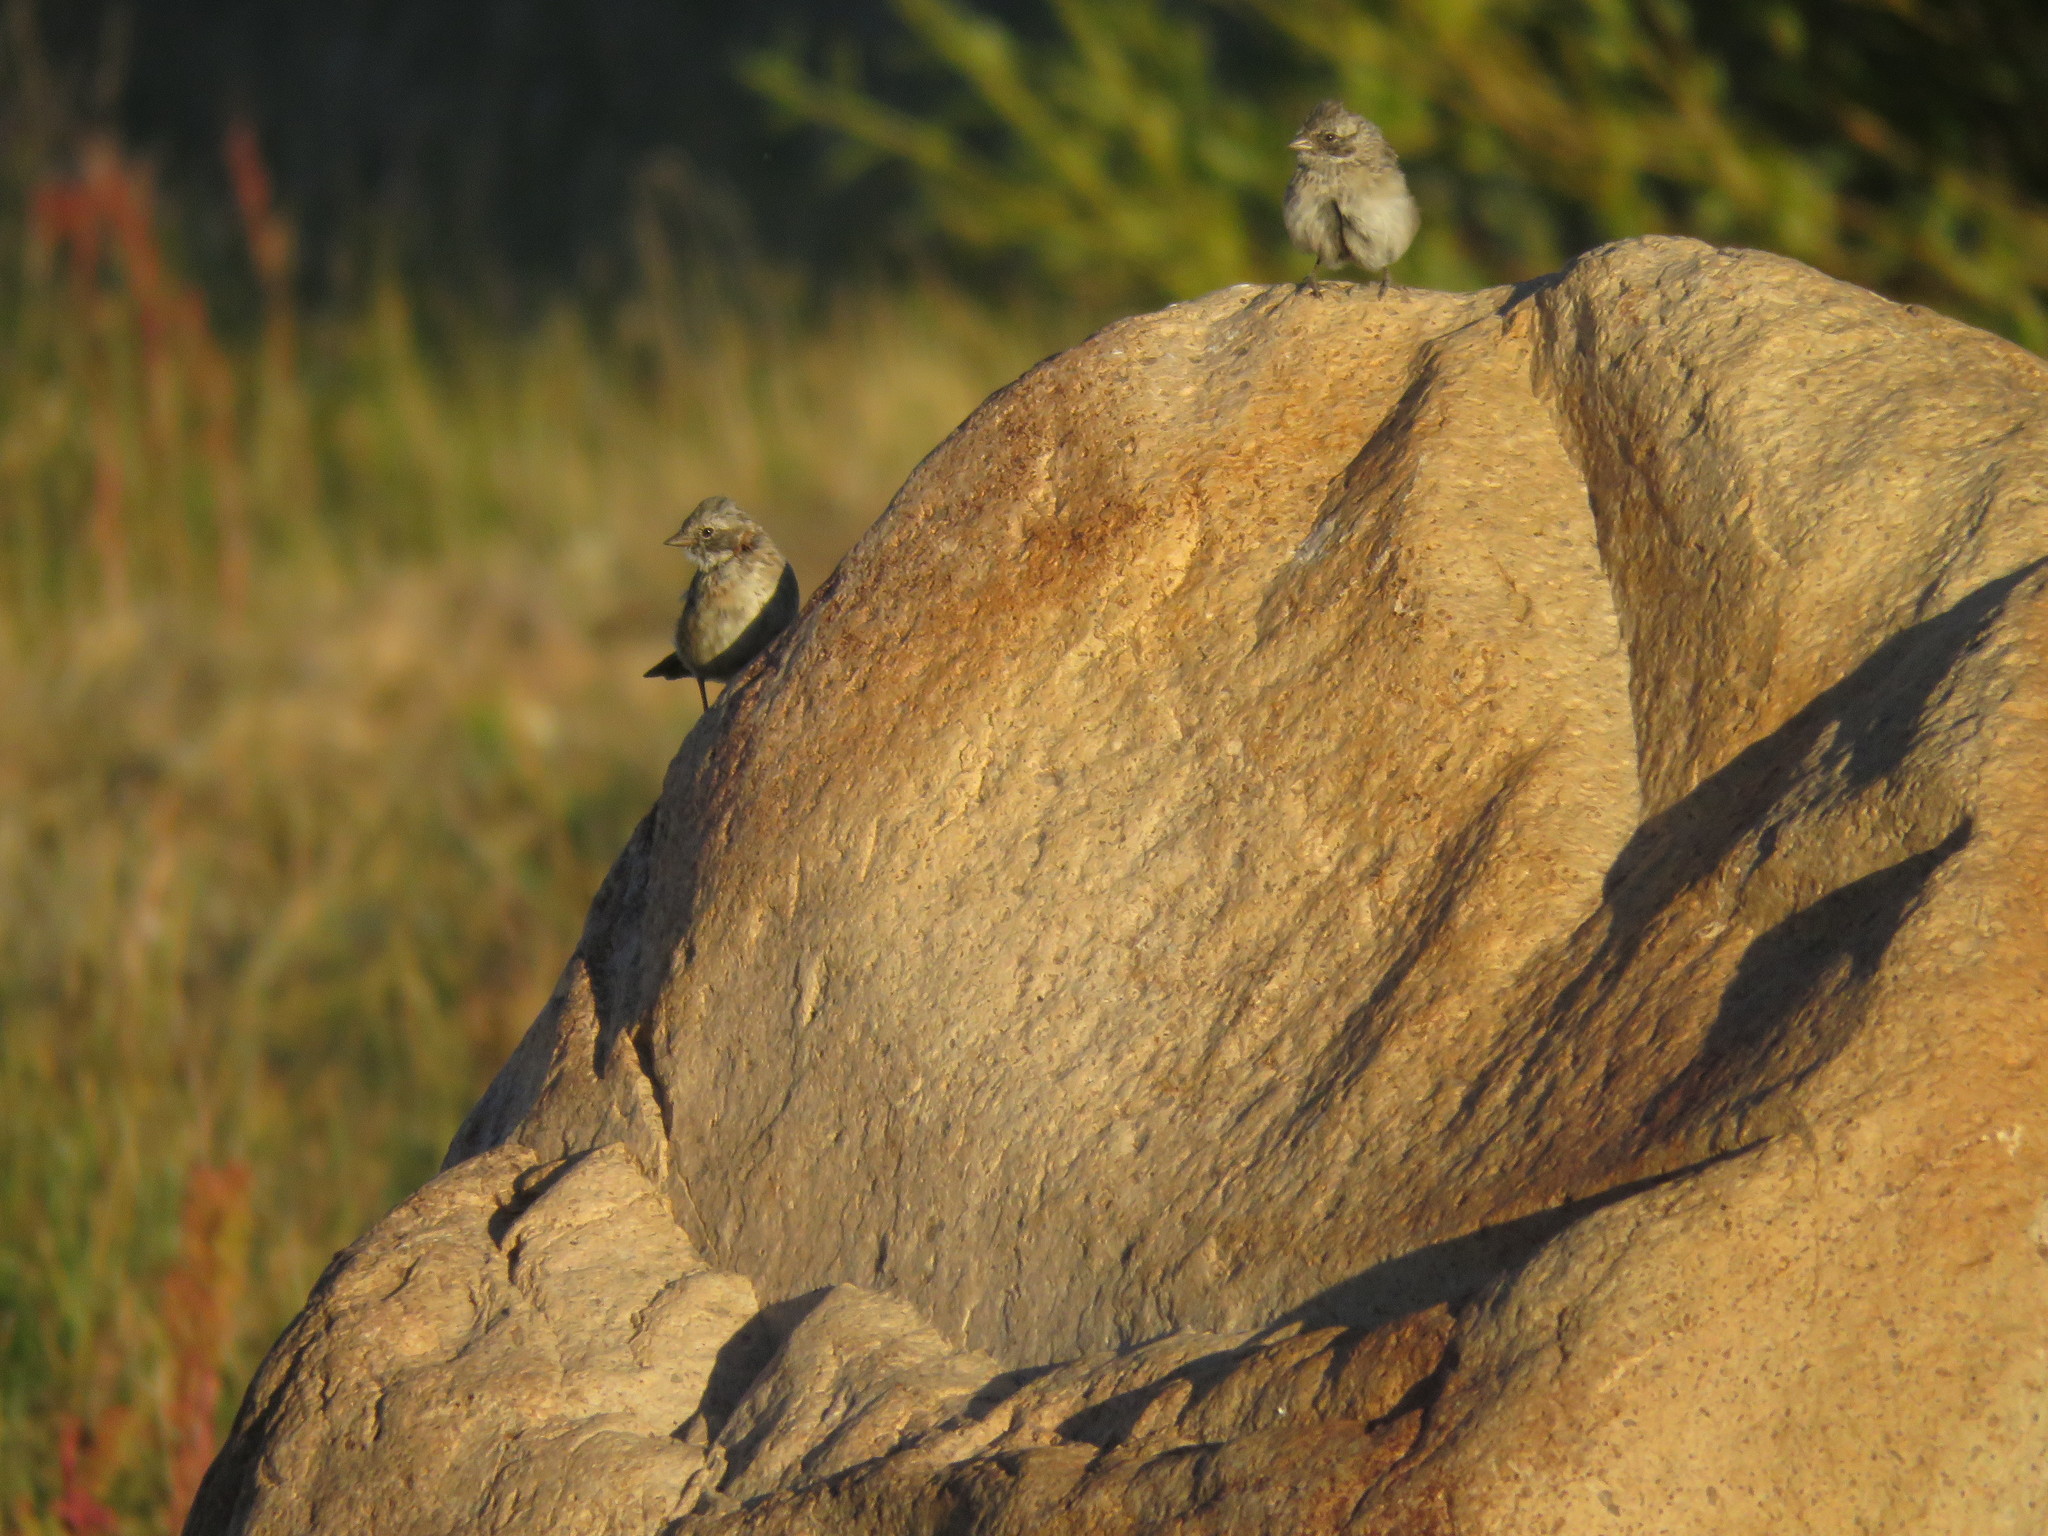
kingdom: Animalia
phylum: Chordata
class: Aves
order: Passeriformes
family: Passerellidae
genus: Zonotrichia
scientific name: Zonotrichia capensis
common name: Rufous-collared sparrow
